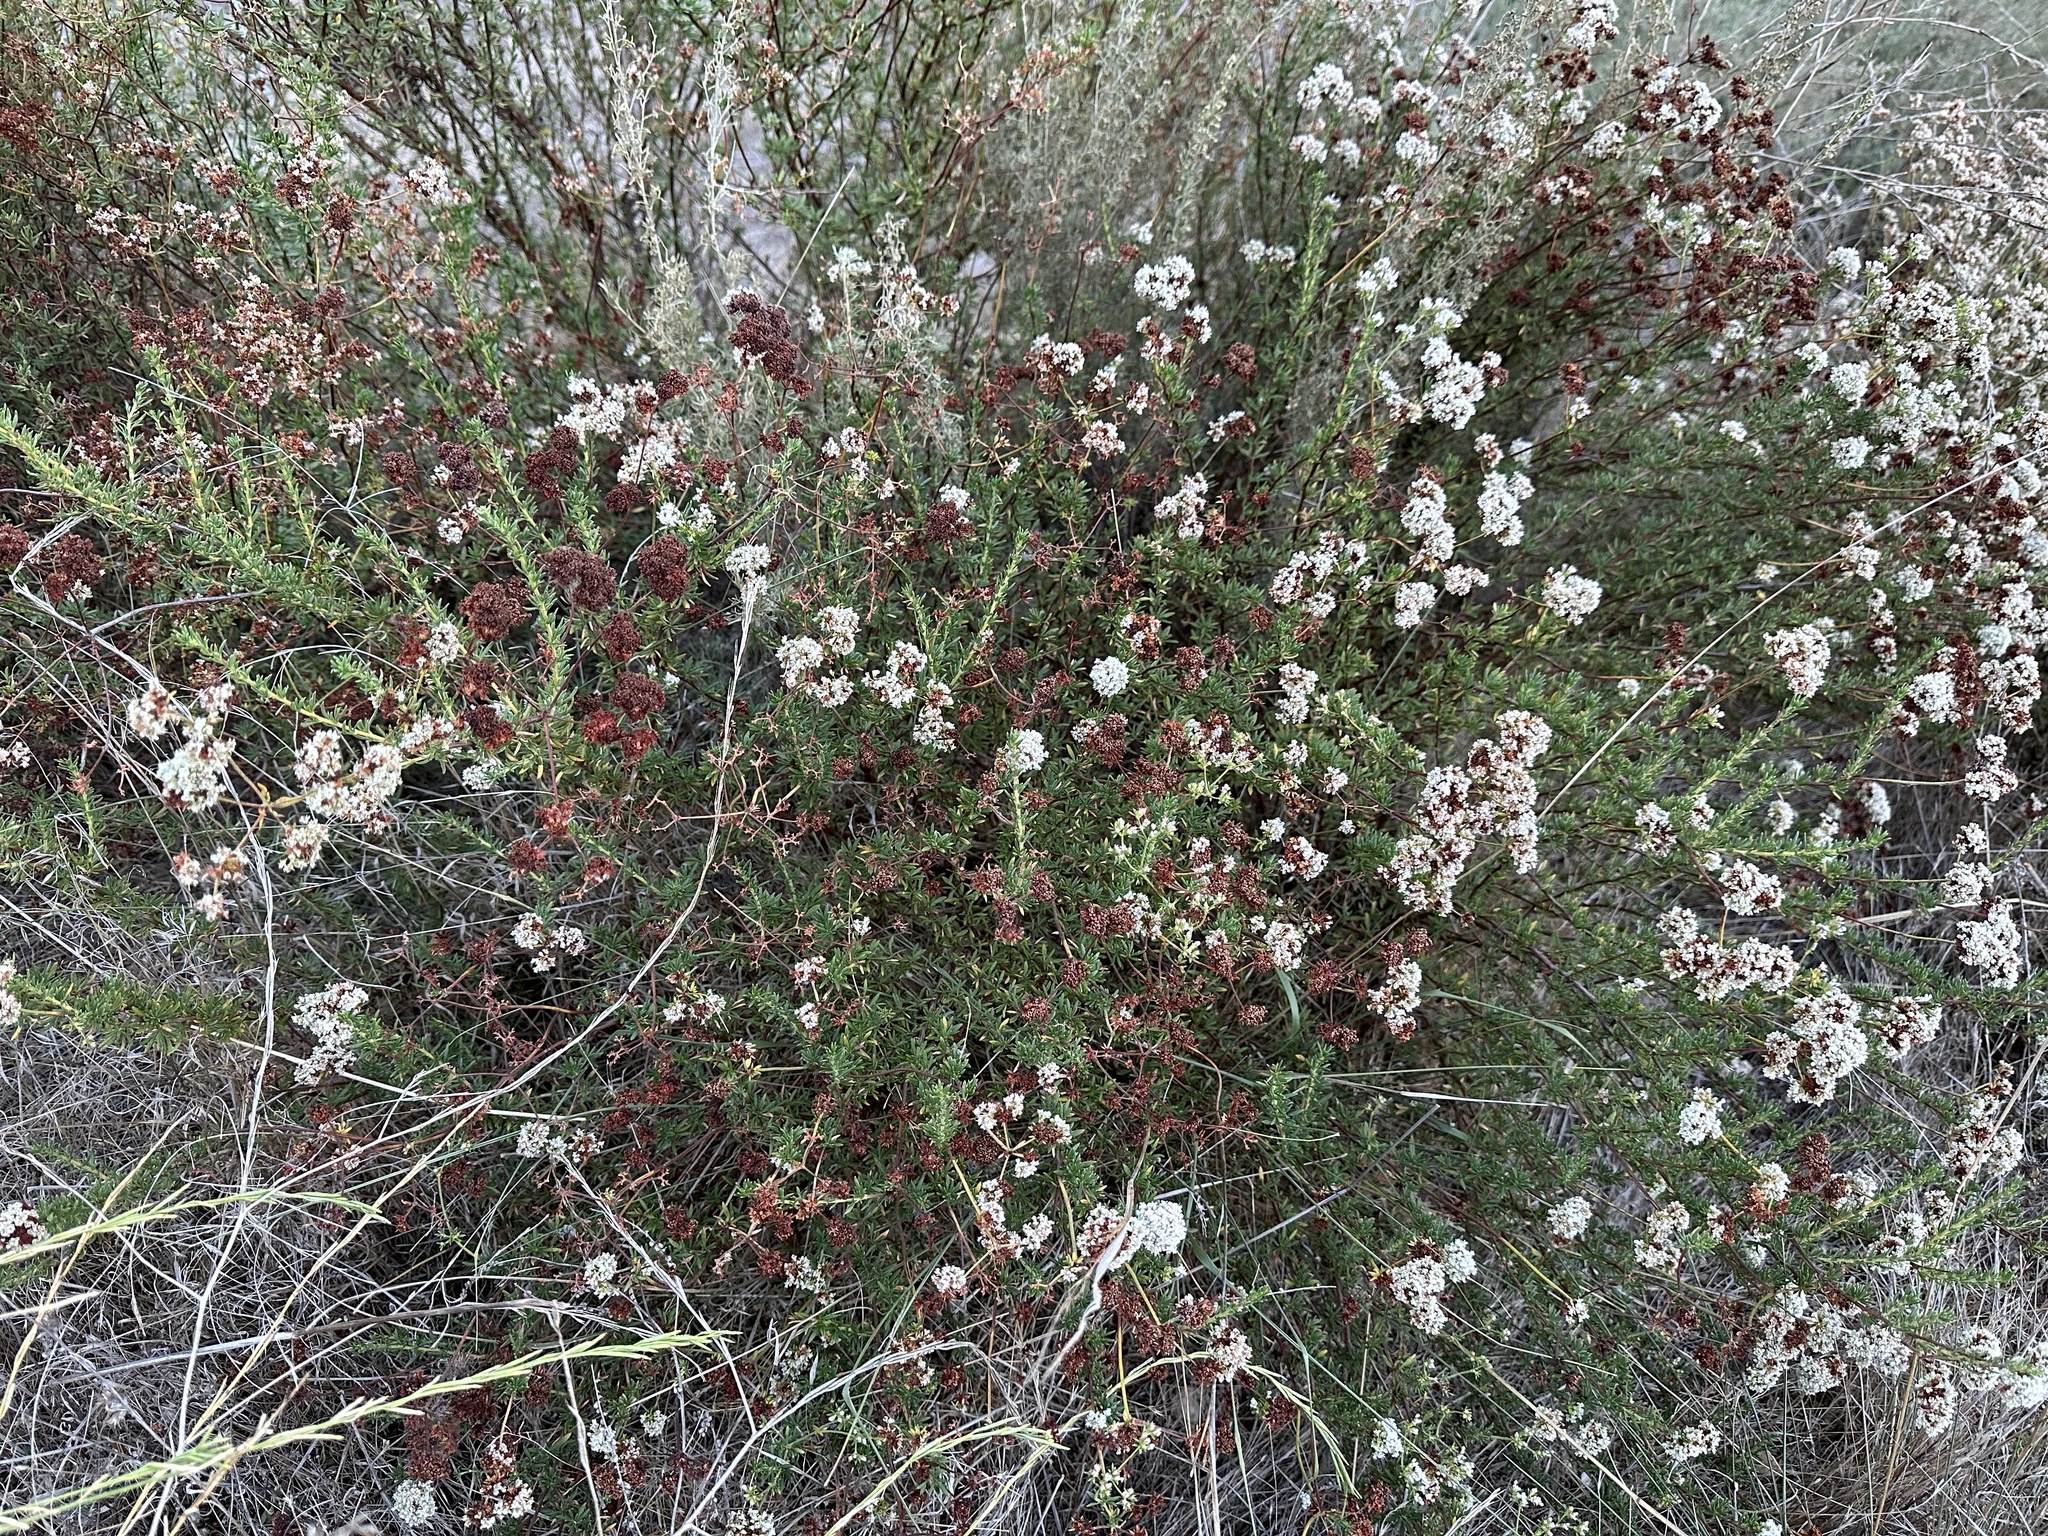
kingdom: Plantae
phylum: Tracheophyta
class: Magnoliopsida
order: Caryophyllales
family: Polygonaceae
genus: Eriogonum
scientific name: Eriogonum fasciculatum
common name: California wild buckwheat
